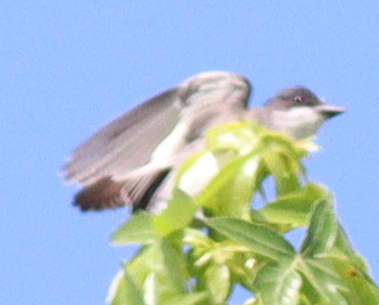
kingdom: Animalia
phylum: Chordata
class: Aves
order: Passeriformes
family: Tyrannidae
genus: Tyrannus
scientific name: Tyrannus tyrannus
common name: Eastern kingbird
